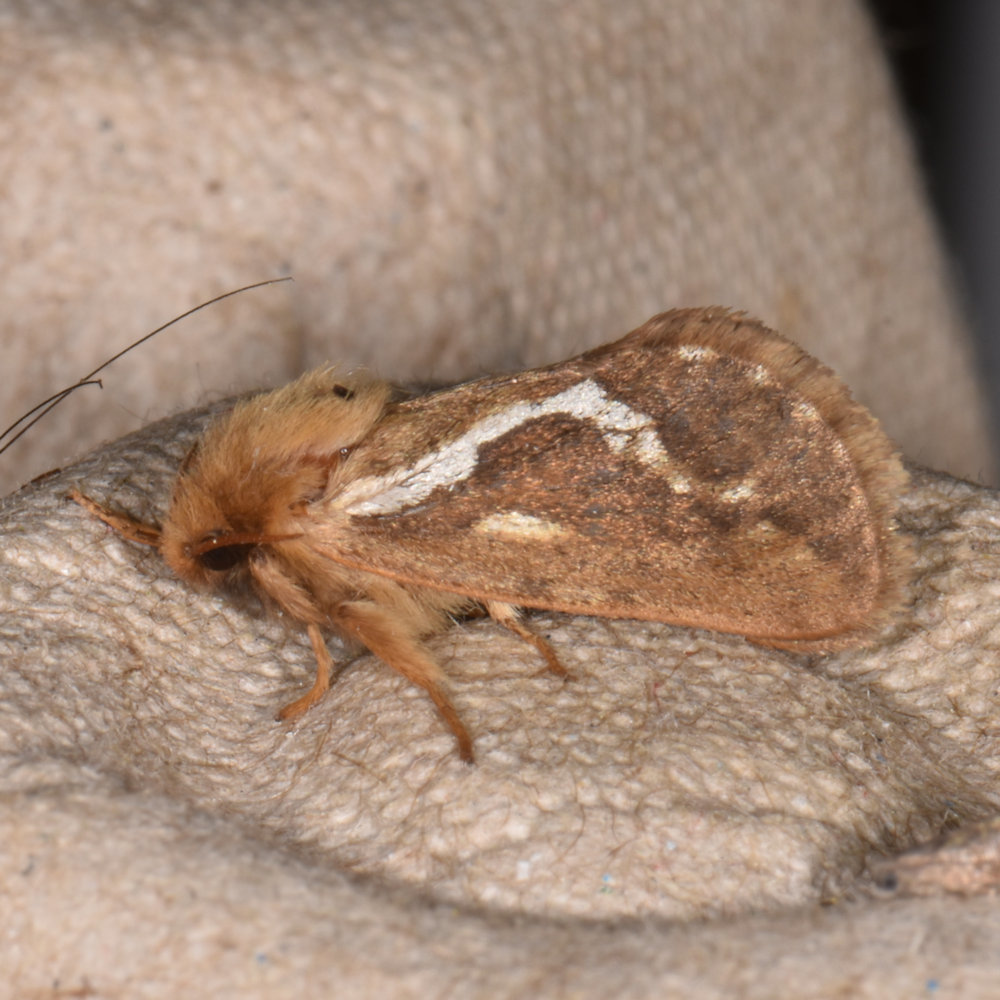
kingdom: Animalia
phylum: Arthropoda
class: Insecta
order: Lepidoptera
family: Hepialidae
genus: Korscheltellus
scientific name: Korscheltellus lupulina
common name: Common swift
